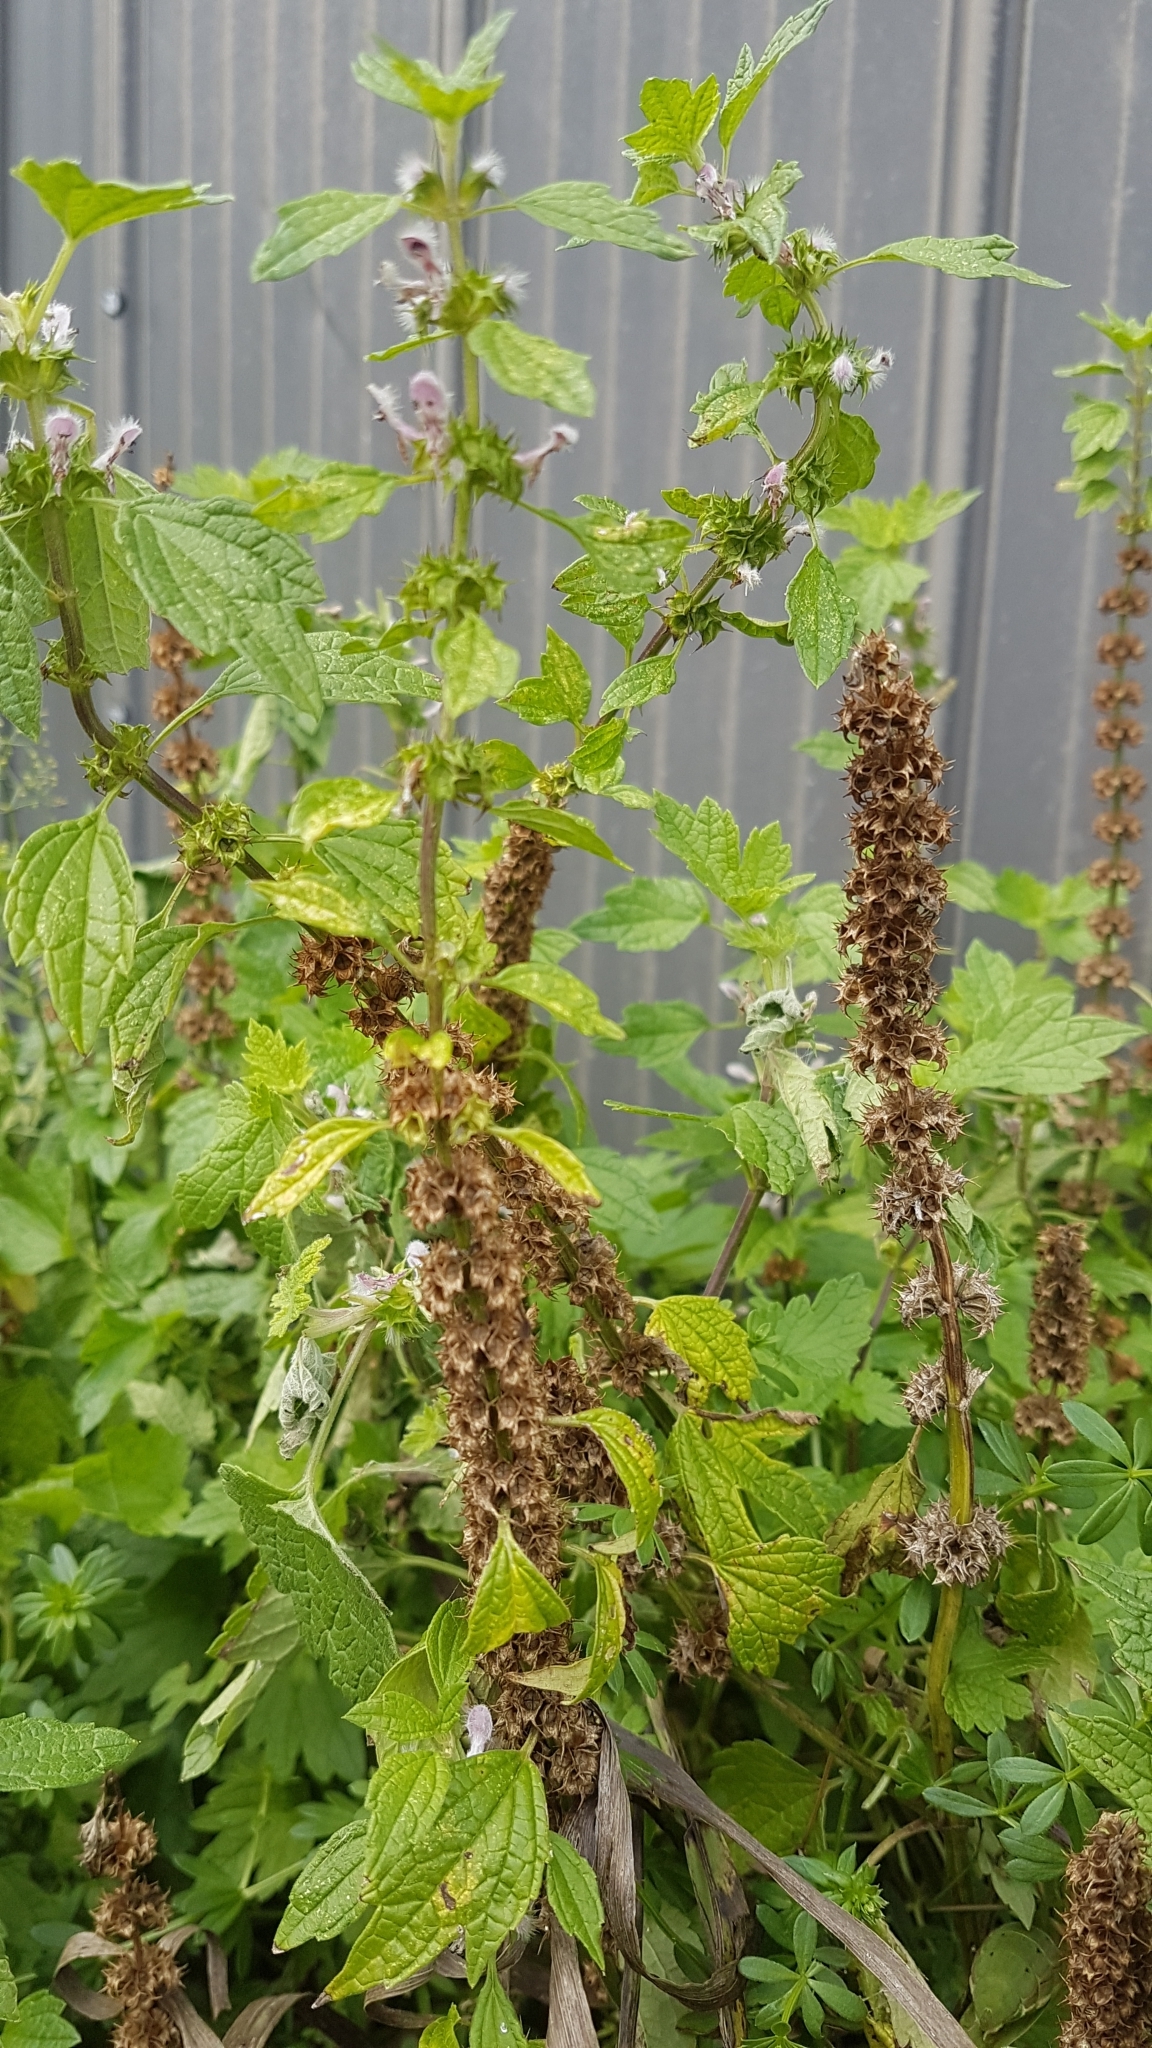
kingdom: Plantae
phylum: Tracheophyta
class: Magnoliopsida
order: Lamiales
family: Lamiaceae
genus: Leonurus
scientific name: Leonurus cardiaca
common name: Motherwort
